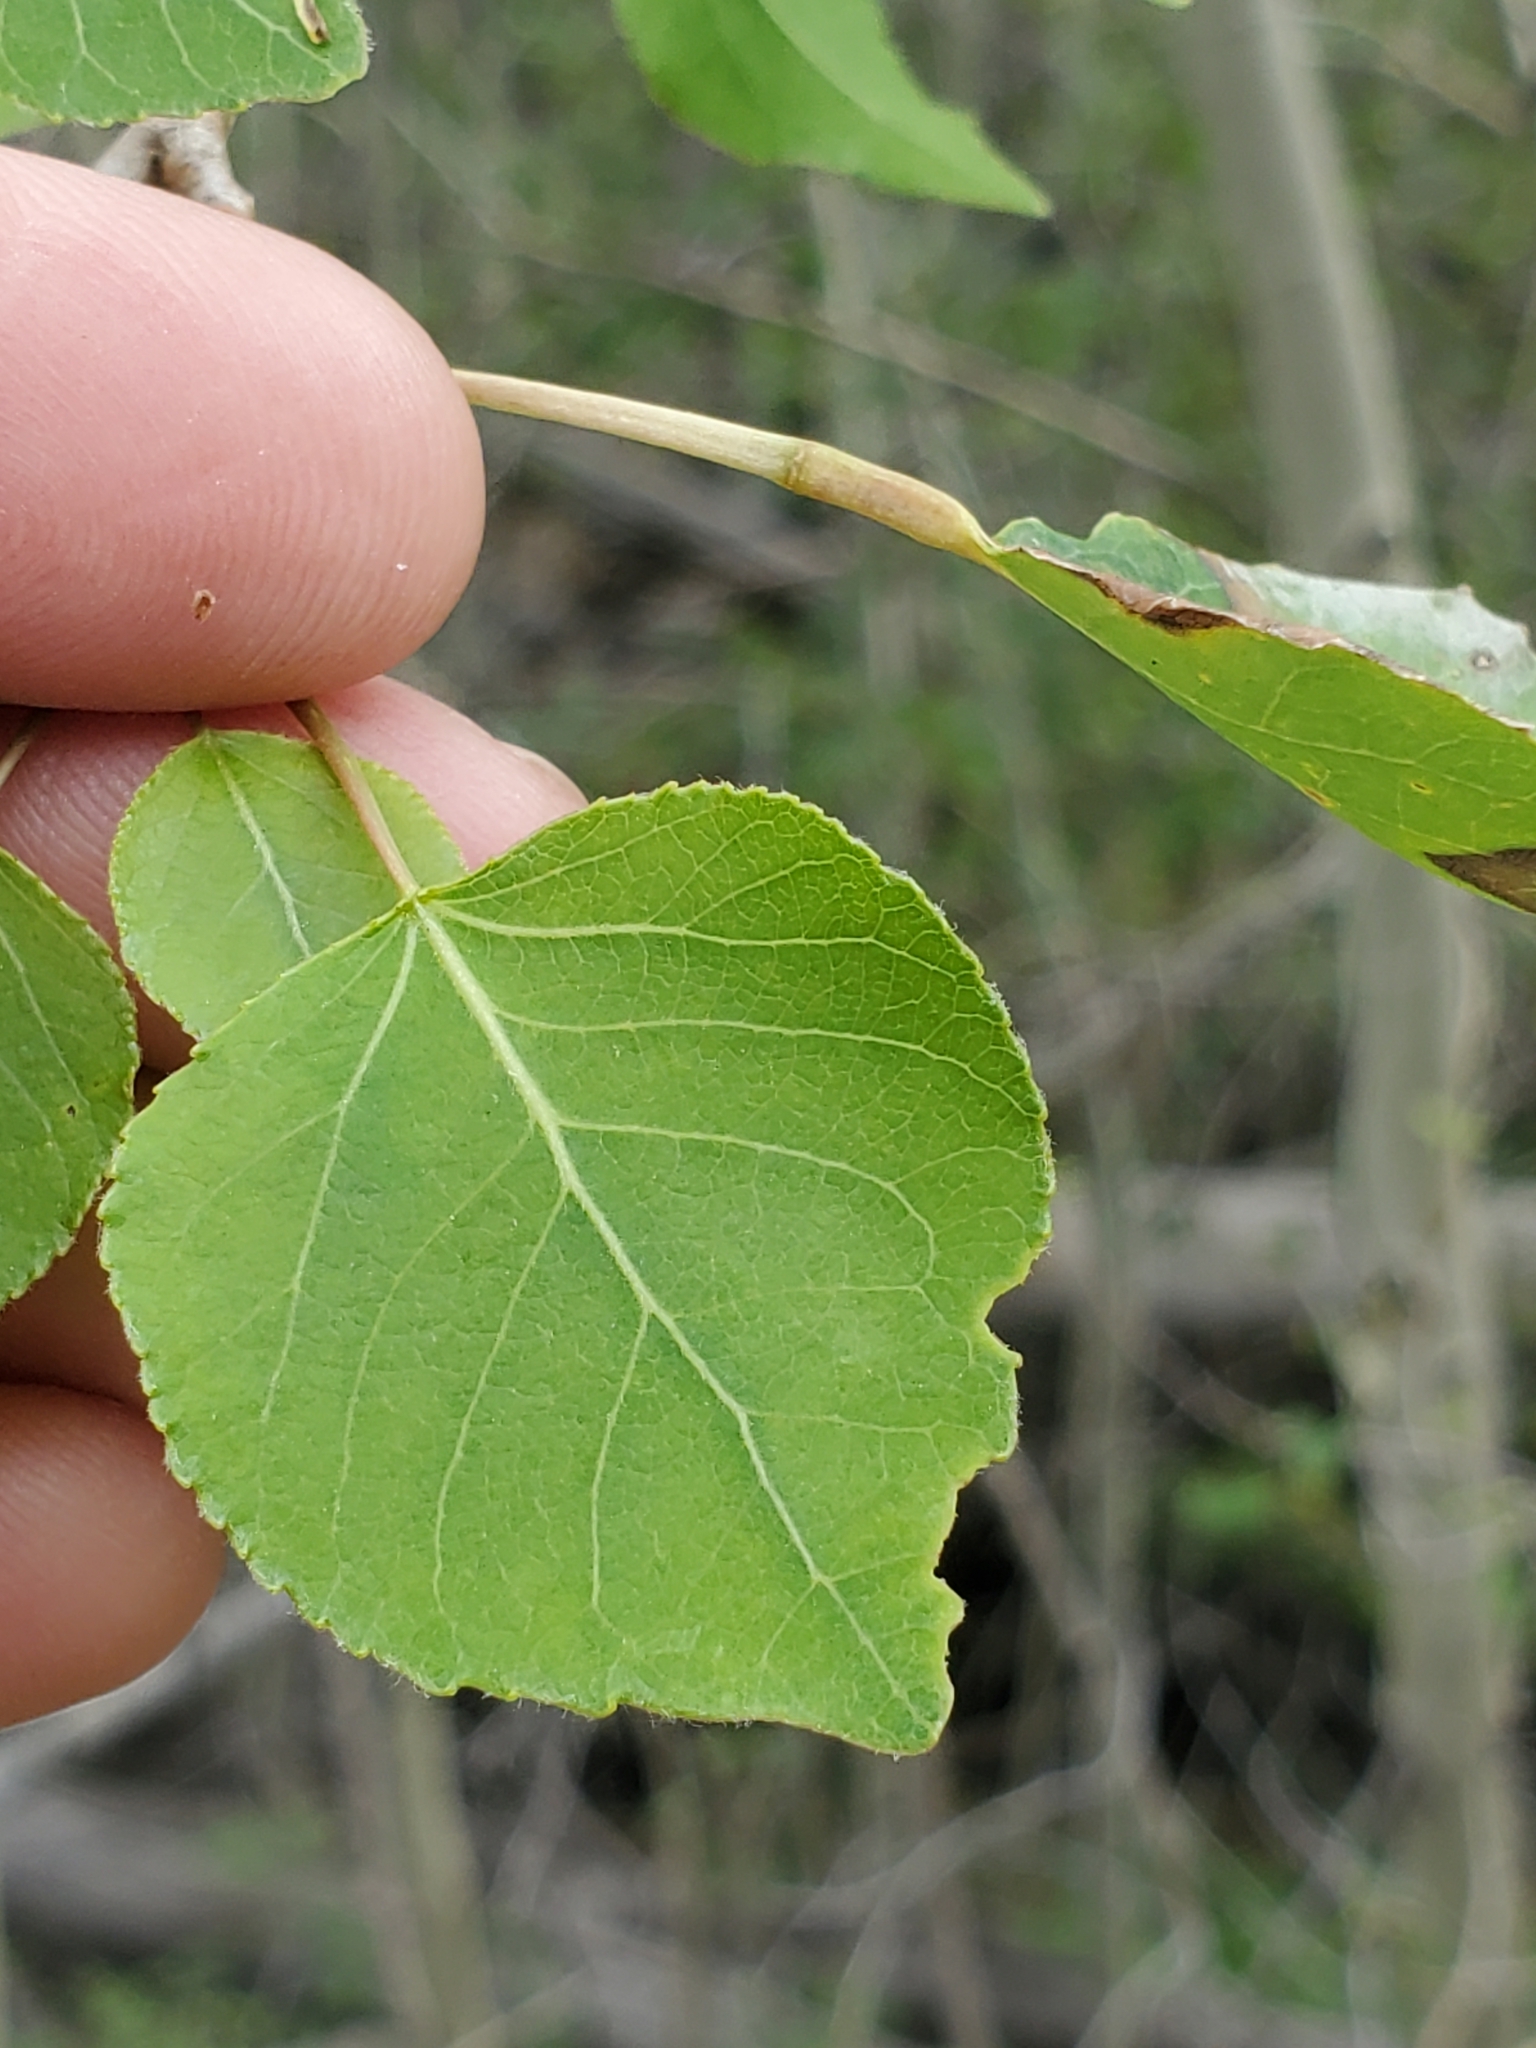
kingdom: Plantae
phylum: Tracheophyta
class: Magnoliopsida
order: Malpighiales
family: Salicaceae
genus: Populus
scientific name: Populus tremuloides
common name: Quaking aspen
